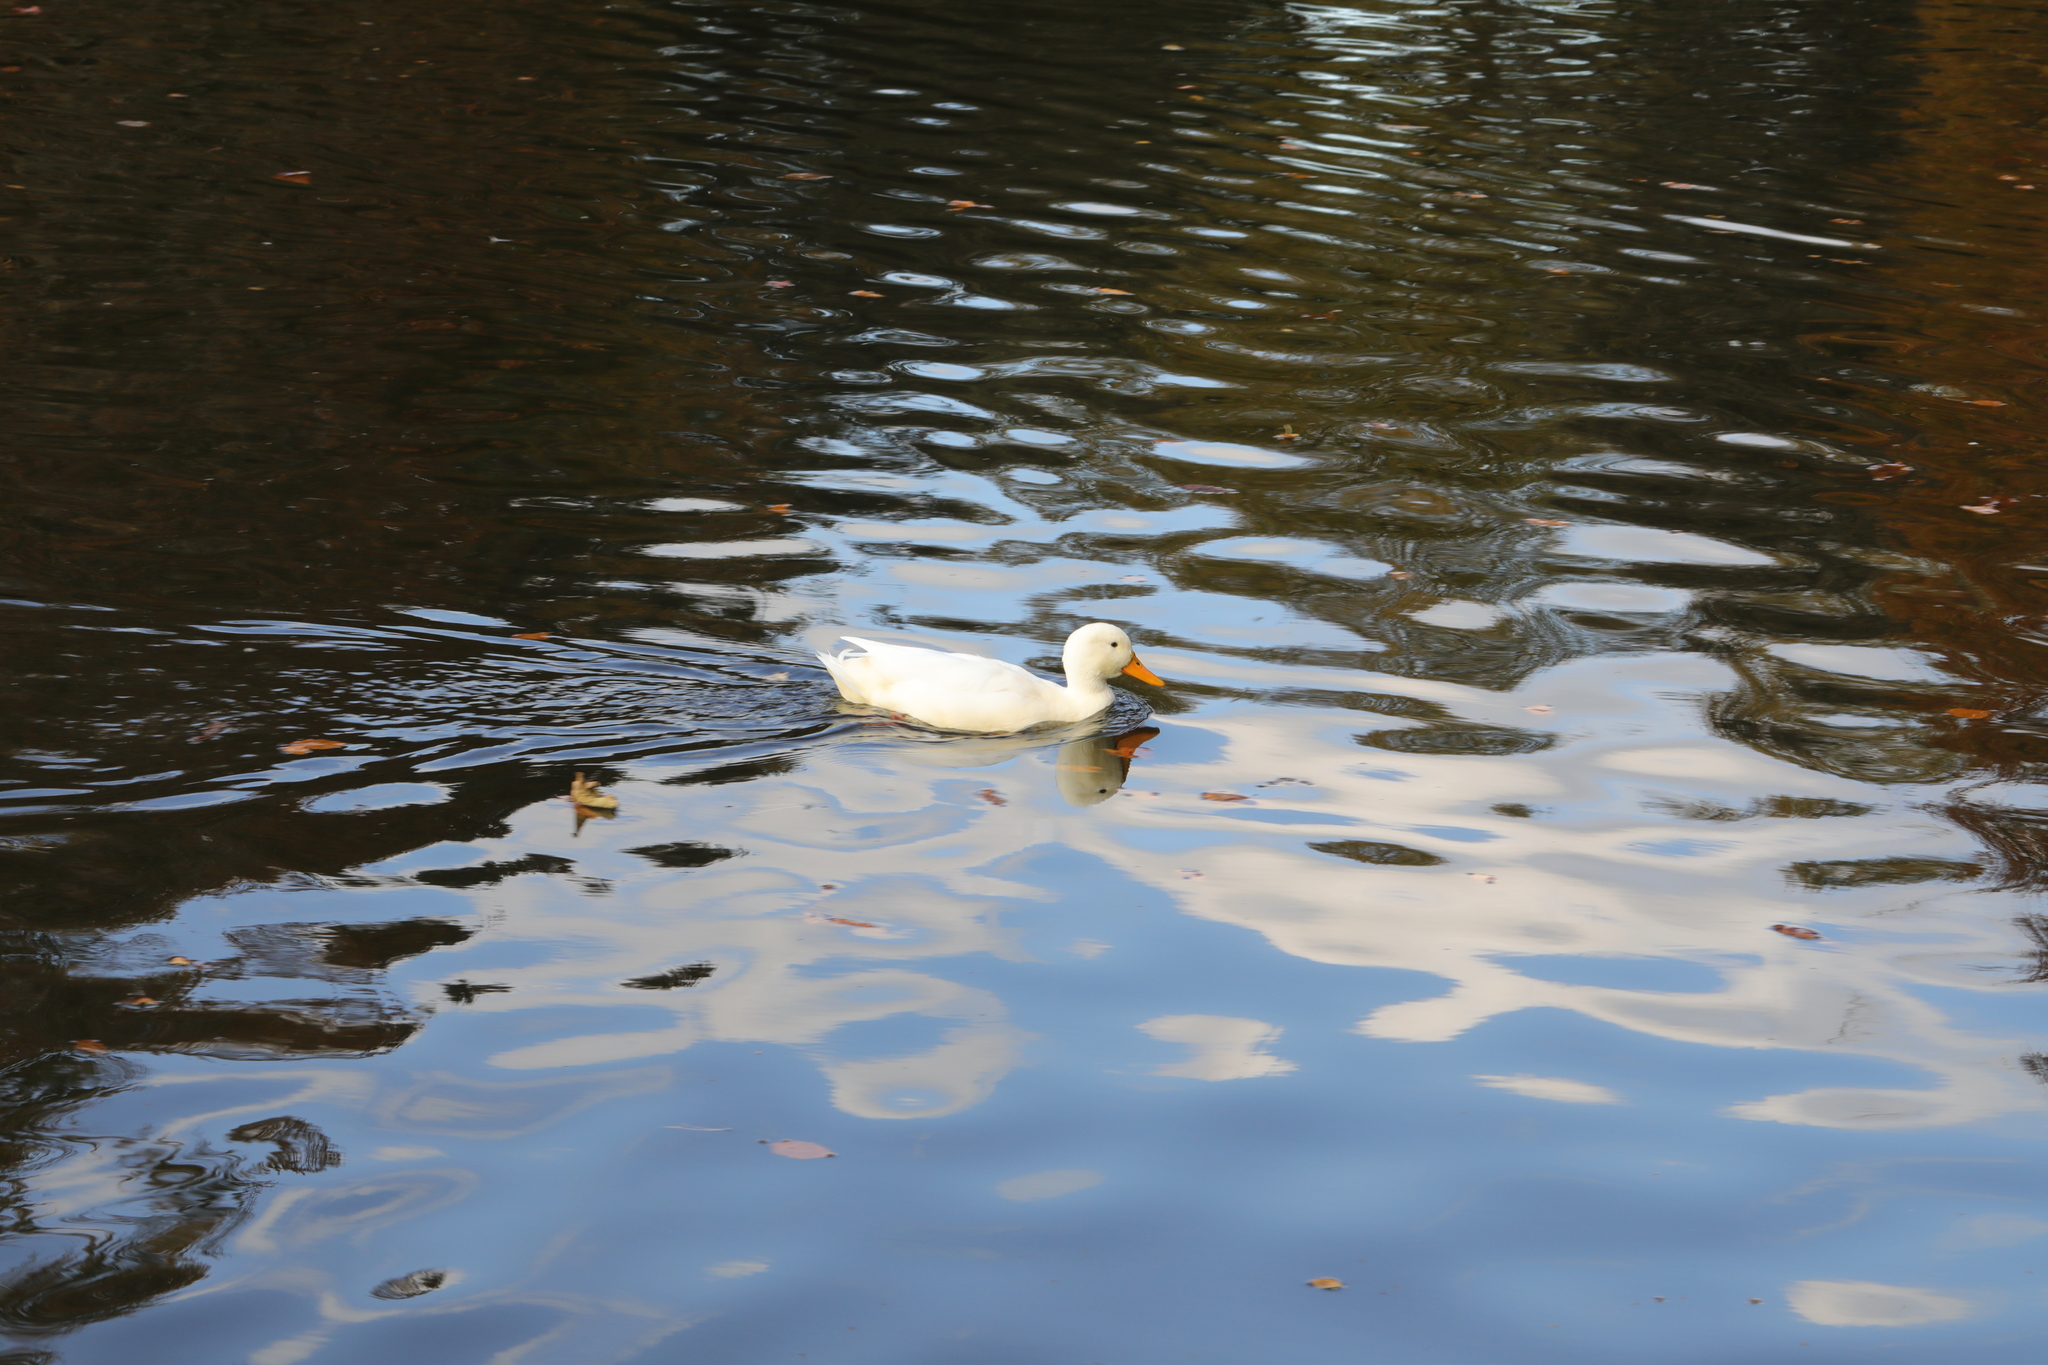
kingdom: Animalia
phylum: Chordata
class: Aves
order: Anseriformes
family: Anatidae
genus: Anas
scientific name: Anas platyrhynchos
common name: Mallard
